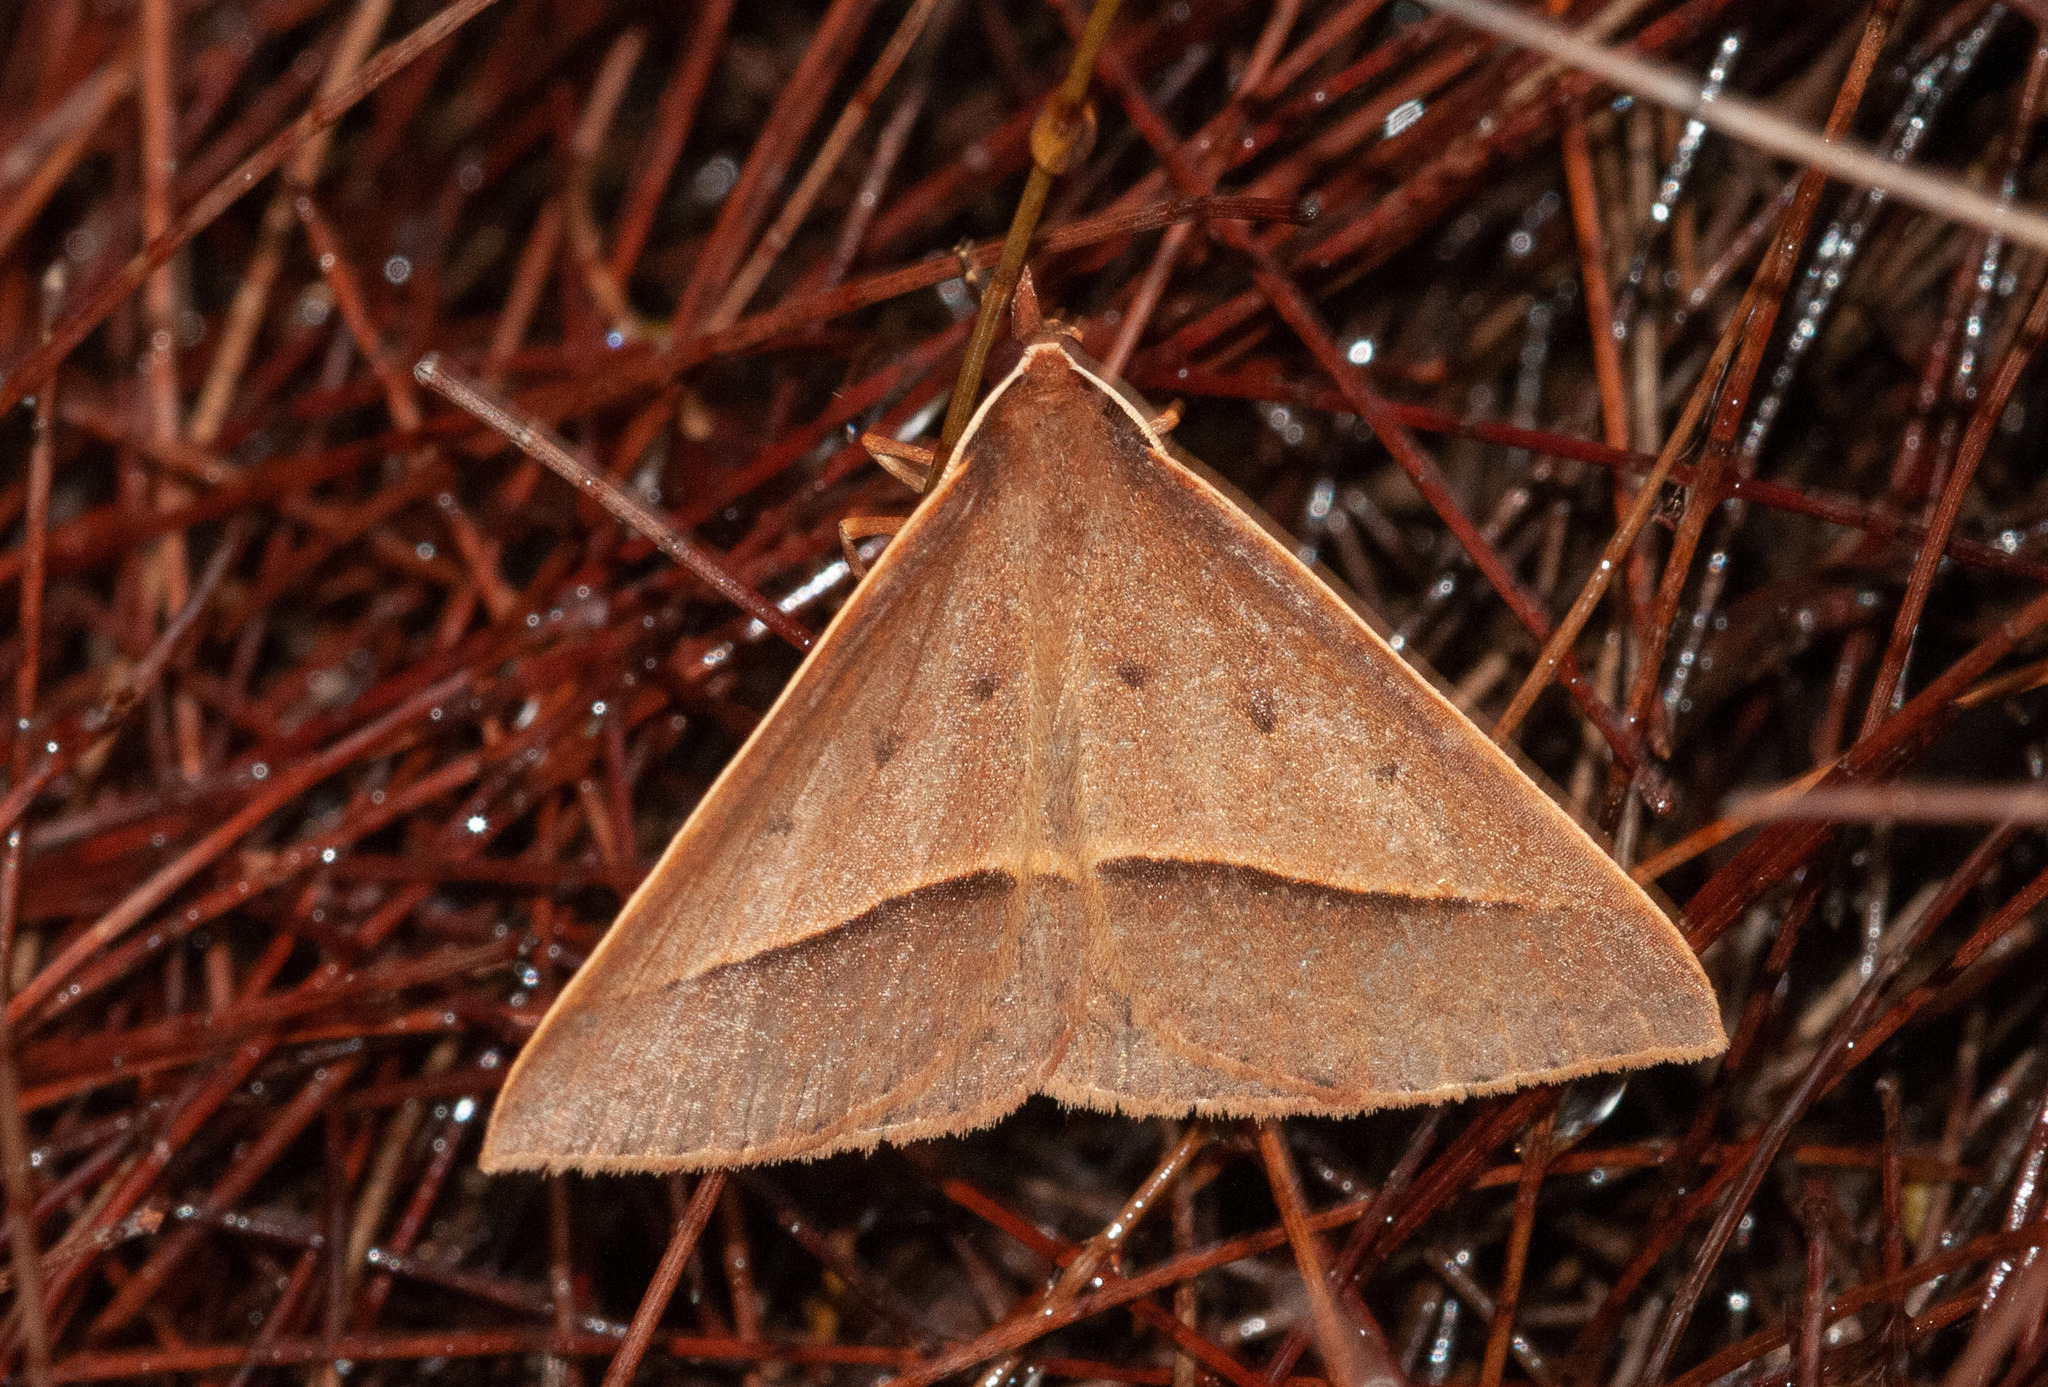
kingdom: Animalia
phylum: Arthropoda
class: Insecta
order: Lepidoptera
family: Geometridae
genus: Epidesmia
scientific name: Epidesmia chilonaria
